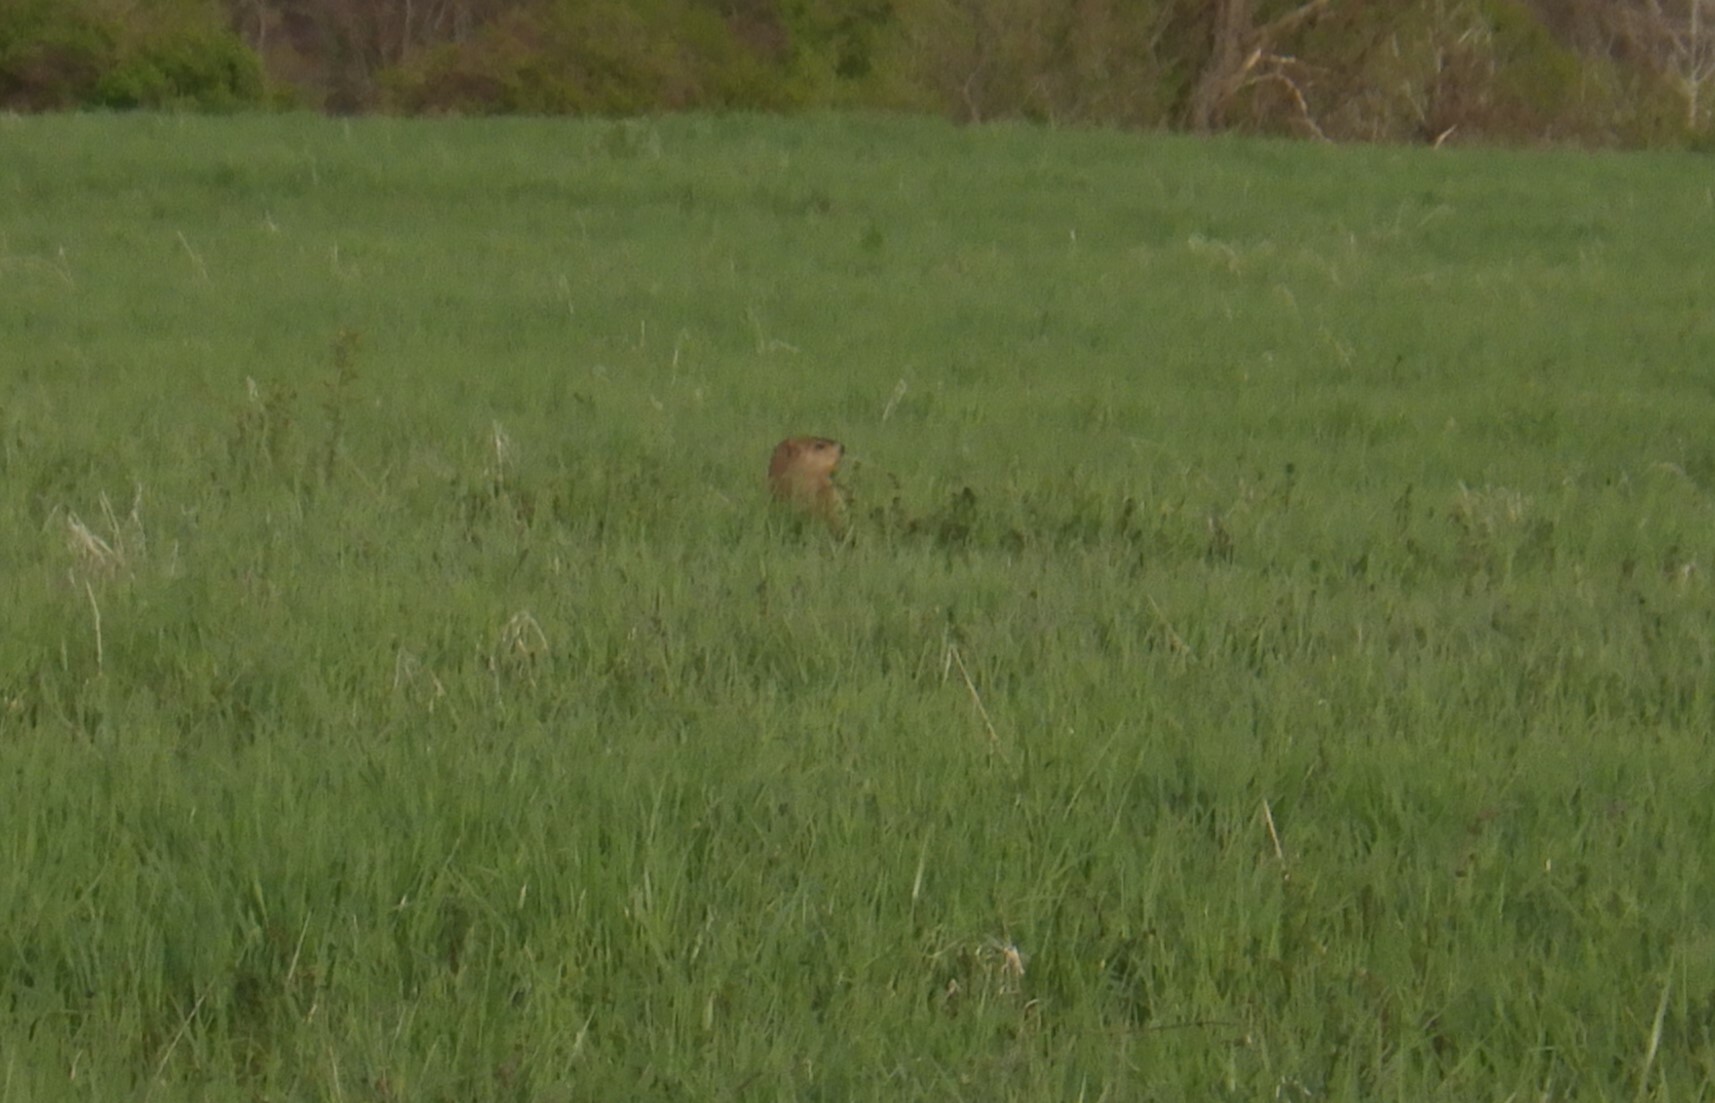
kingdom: Animalia
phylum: Chordata
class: Mammalia
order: Rodentia
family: Sciuridae
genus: Marmota
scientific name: Marmota monax
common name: Groundhog
